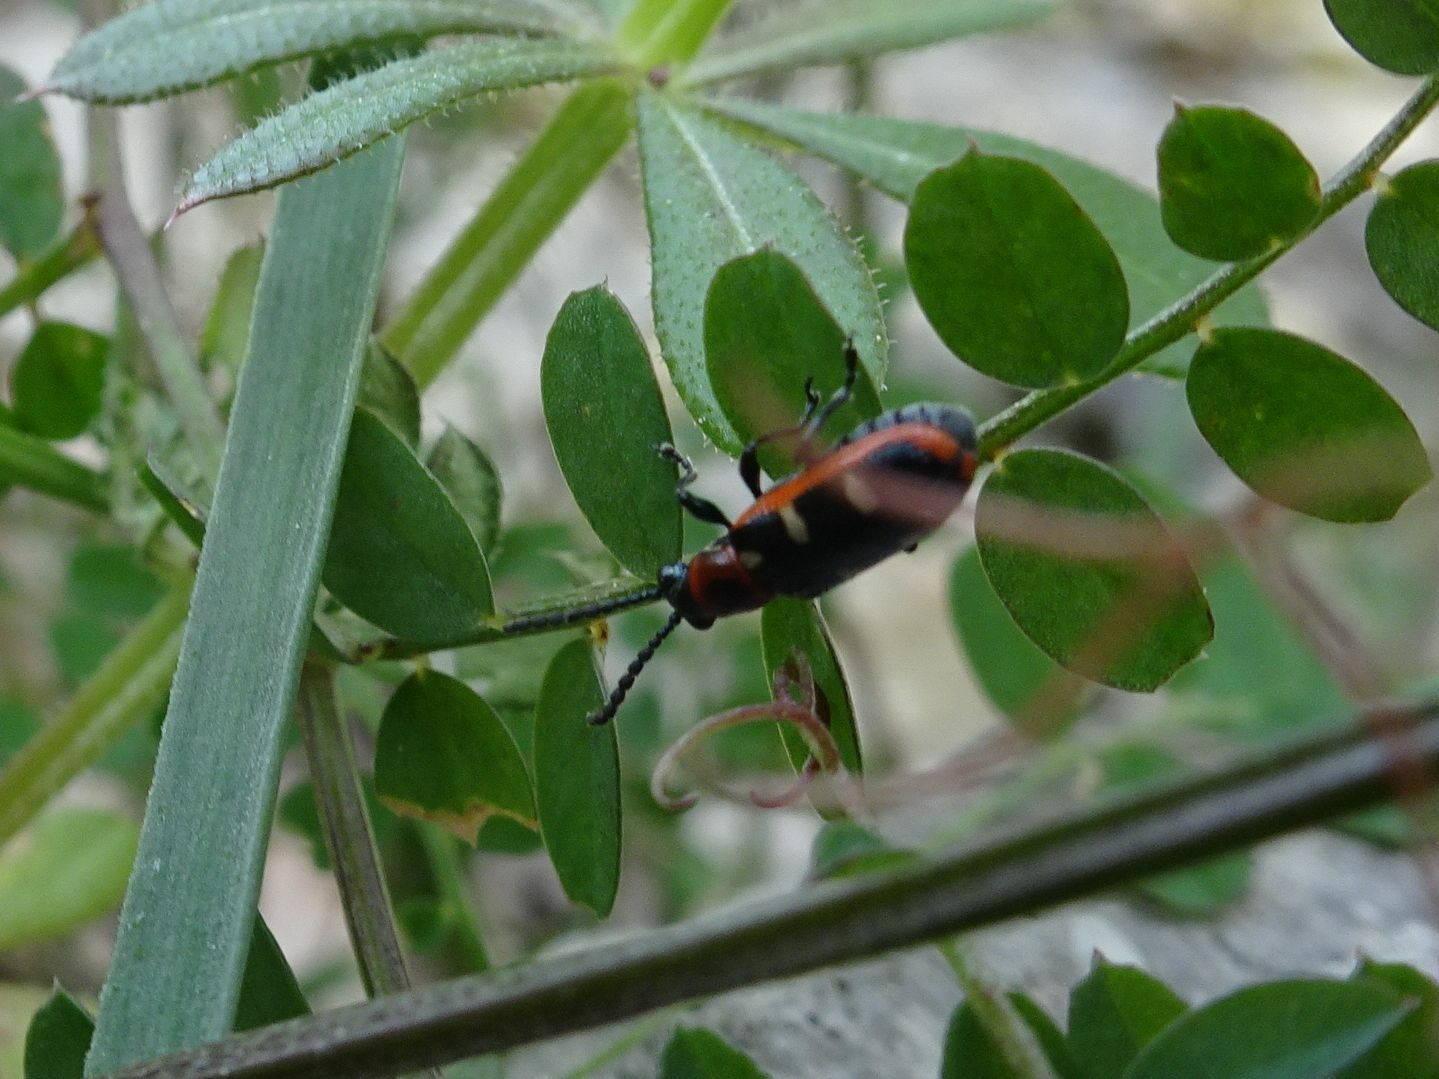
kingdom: Animalia
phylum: Arthropoda
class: Insecta
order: Coleoptera
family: Chrysomelidae
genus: Crioceris
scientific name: Crioceris asparagi
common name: Asparagus beetle
